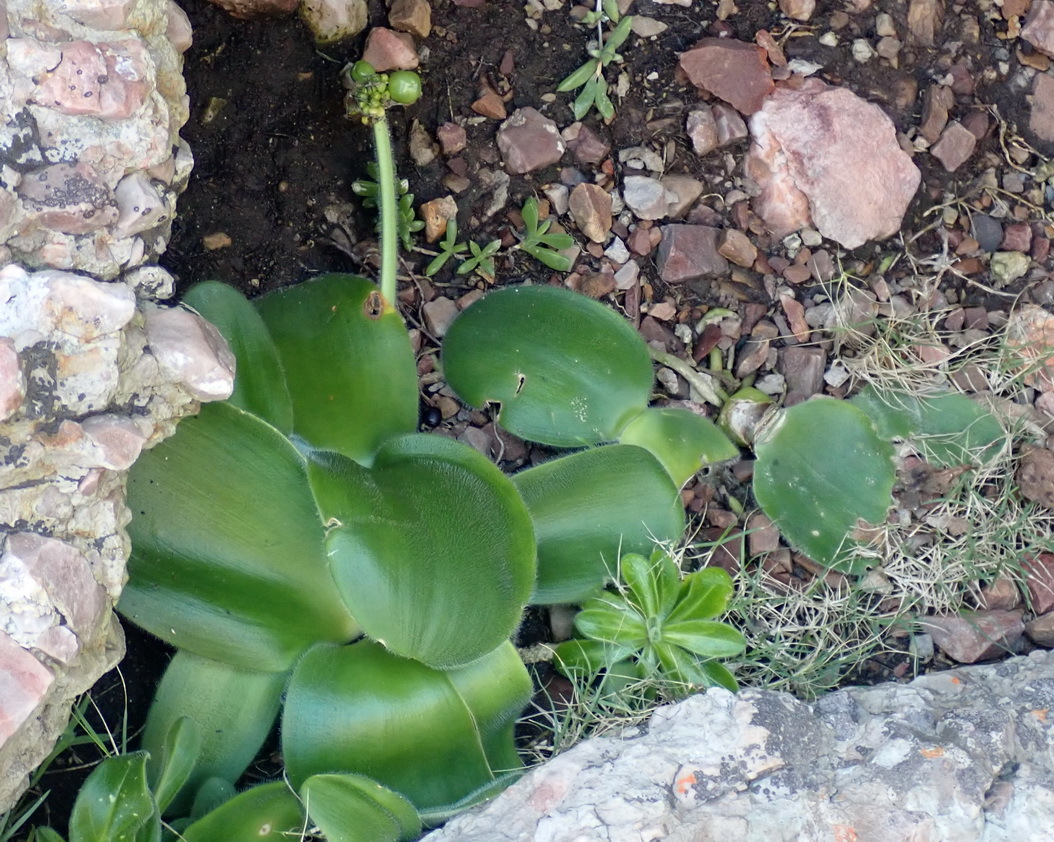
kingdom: Plantae
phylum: Tracheophyta
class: Liliopsida
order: Asparagales
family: Amaryllidaceae
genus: Haemanthus
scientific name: Haemanthus albiflos
